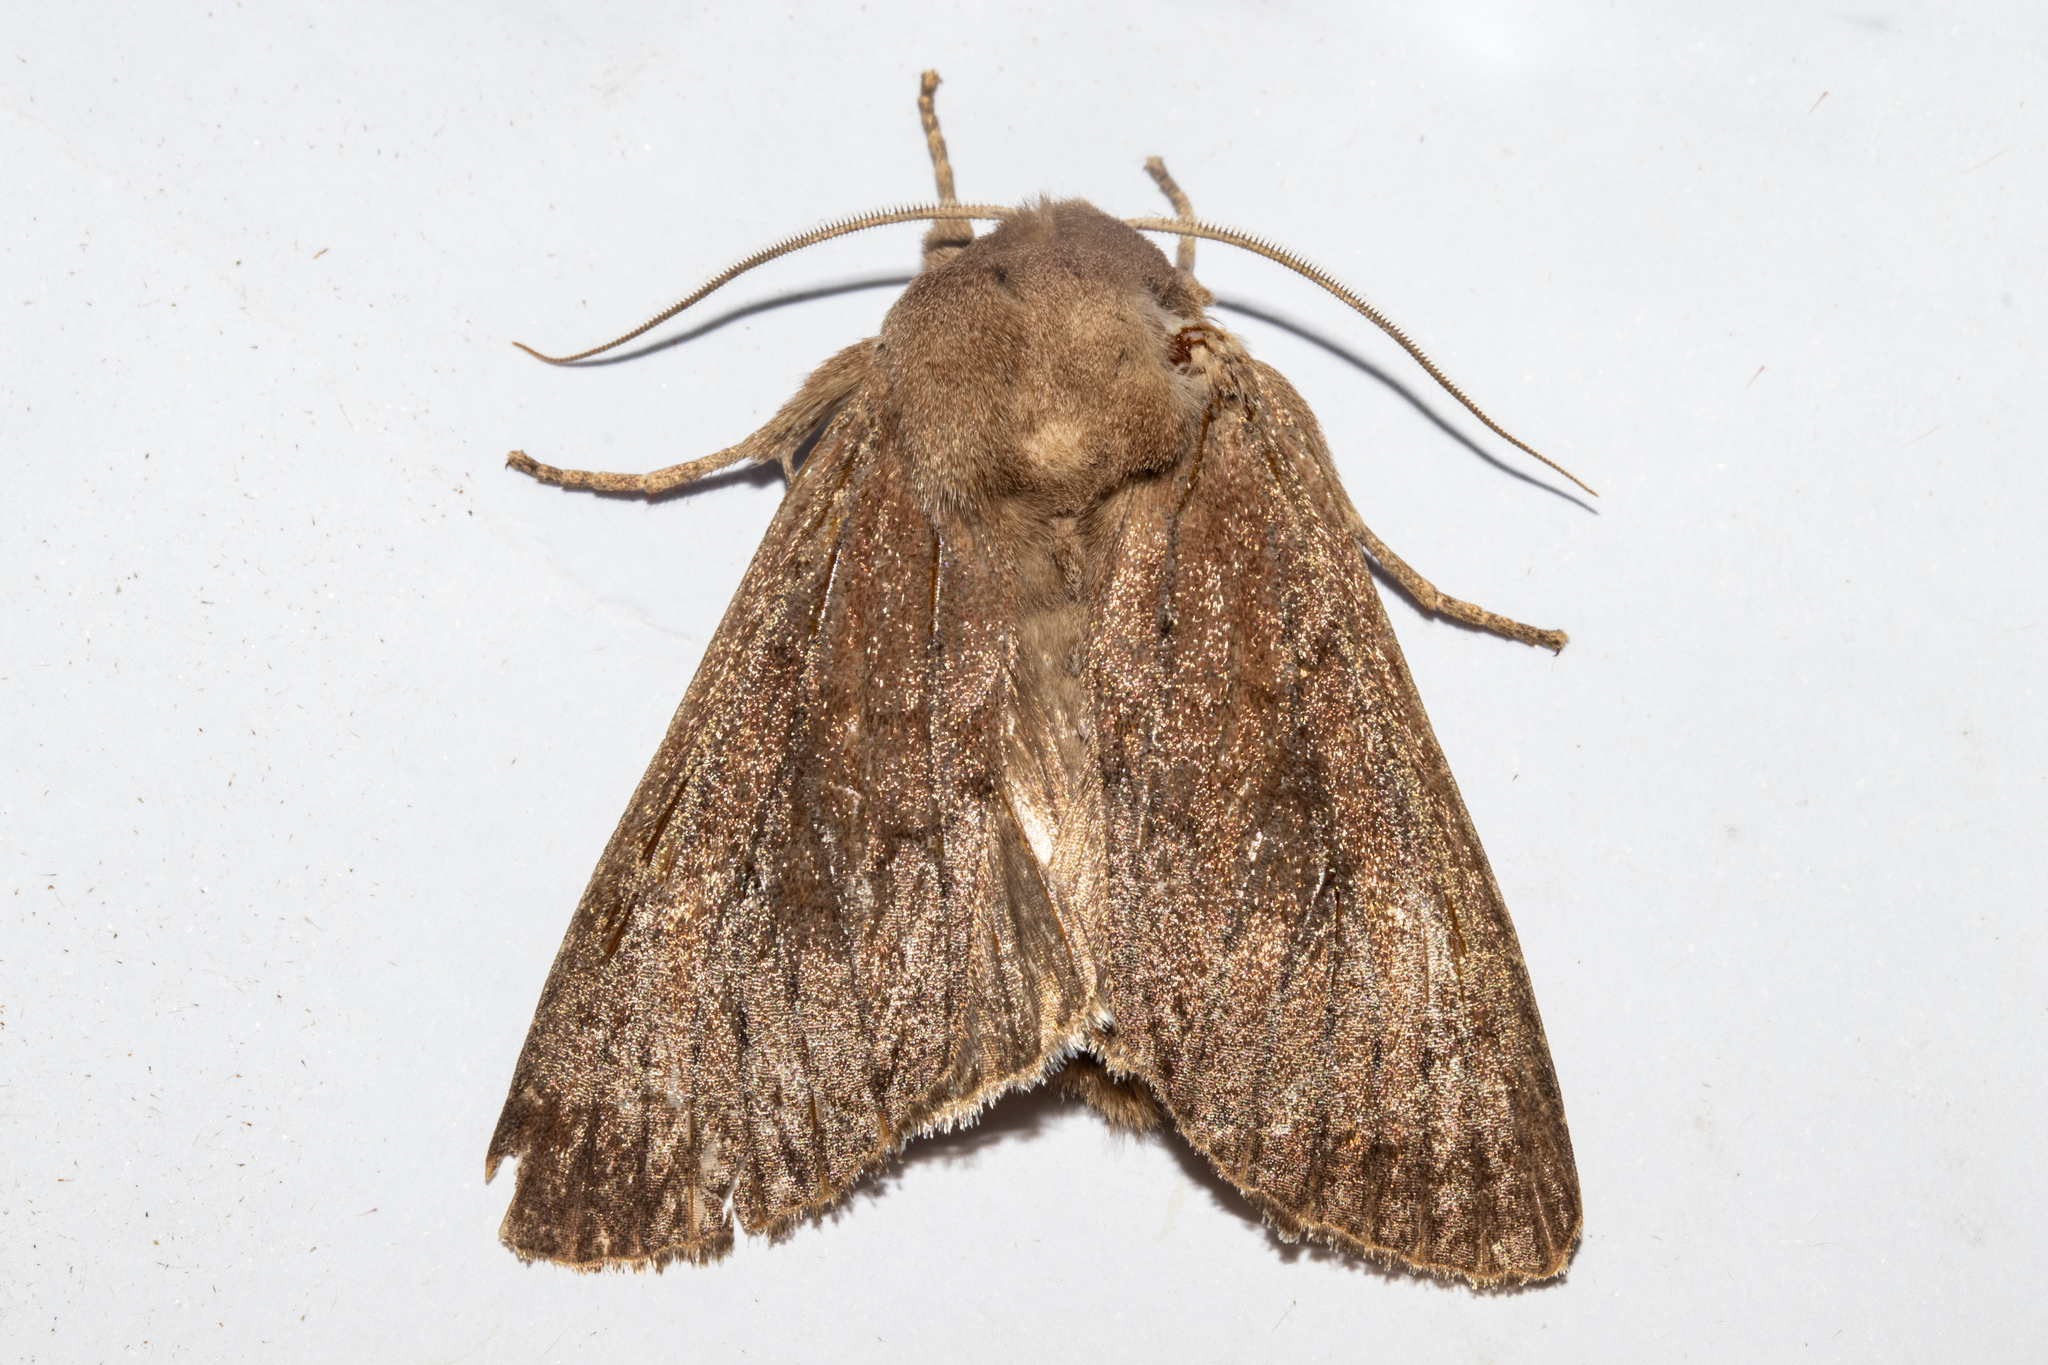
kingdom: Animalia
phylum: Arthropoda
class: Insecta
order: Lepidoptera
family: Noctuidae
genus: Ichneutica
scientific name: Ichneutica nullifera
